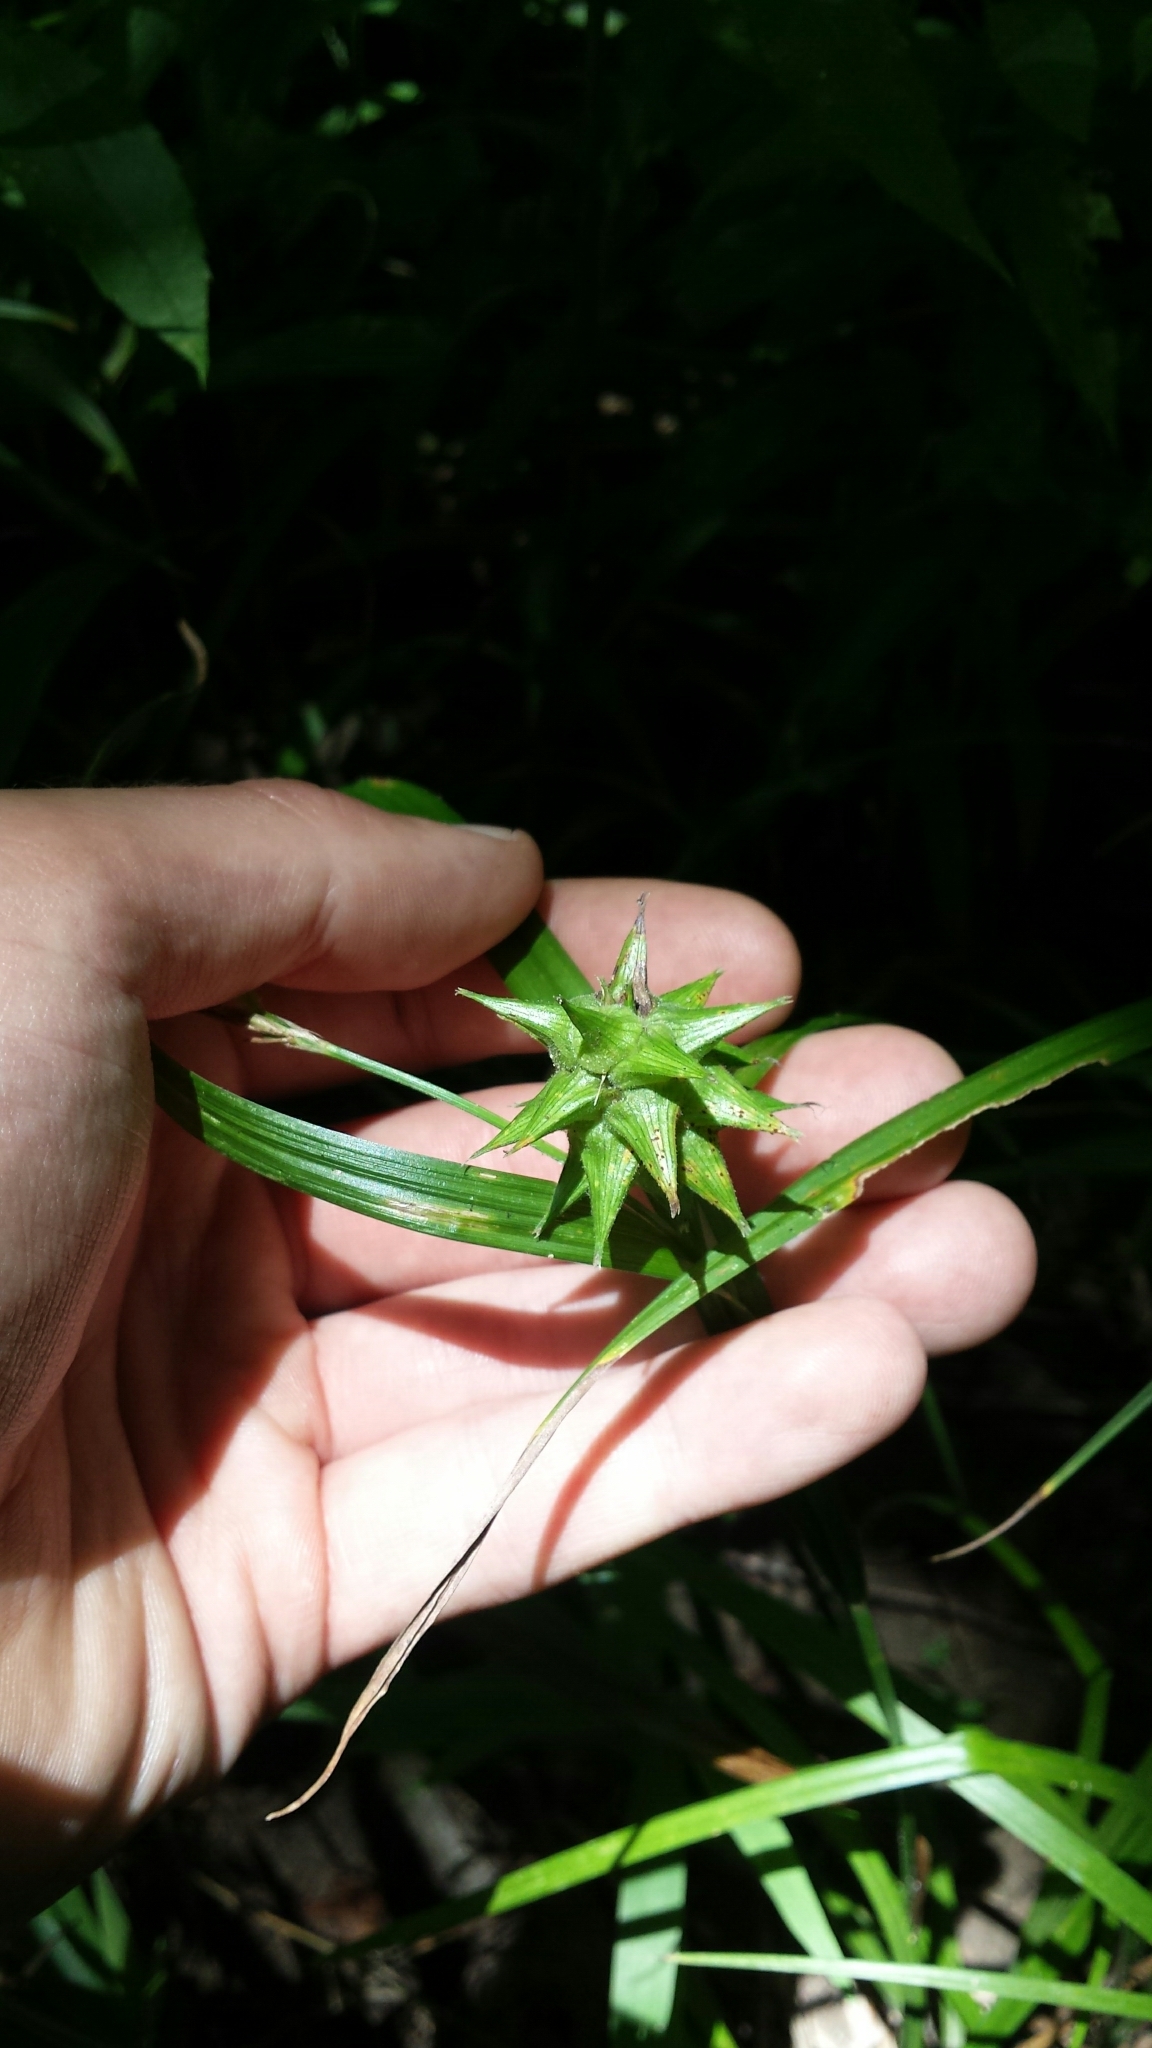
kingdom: Plantae
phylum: Tracheophyta
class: Liliopsida
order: Poales
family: Cyperaceae
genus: Carex
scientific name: Carex grayi
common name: Asa gray's sedge
